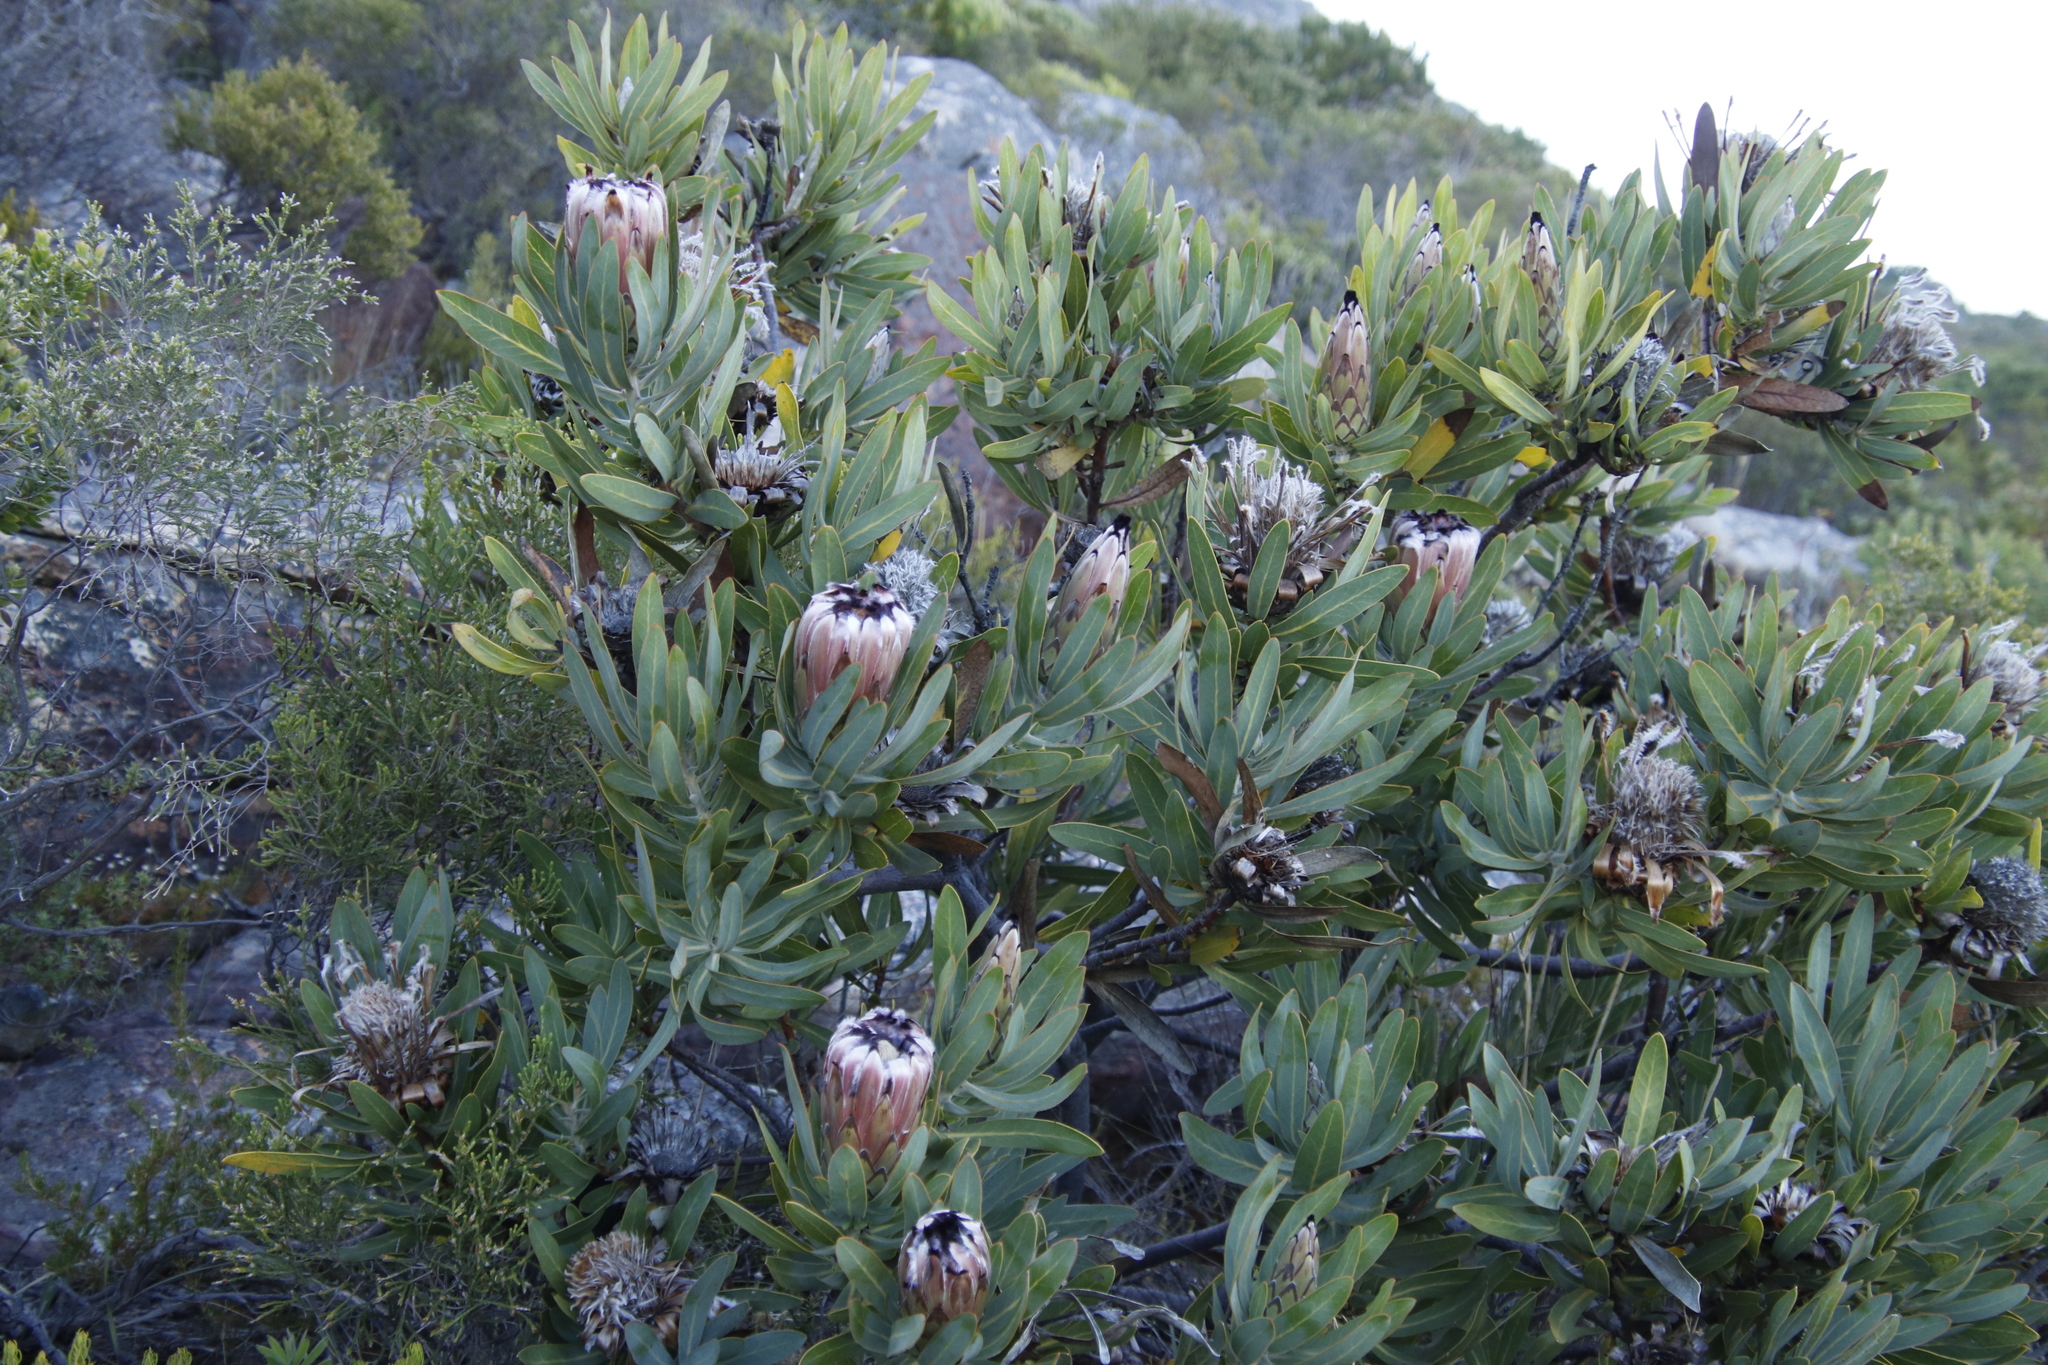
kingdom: Plantae
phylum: Tracheophyta
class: Magnoliopsida
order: Proteales
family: Proteaceae
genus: Protea
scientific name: Protea neriifolia
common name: Blue sugarbush
